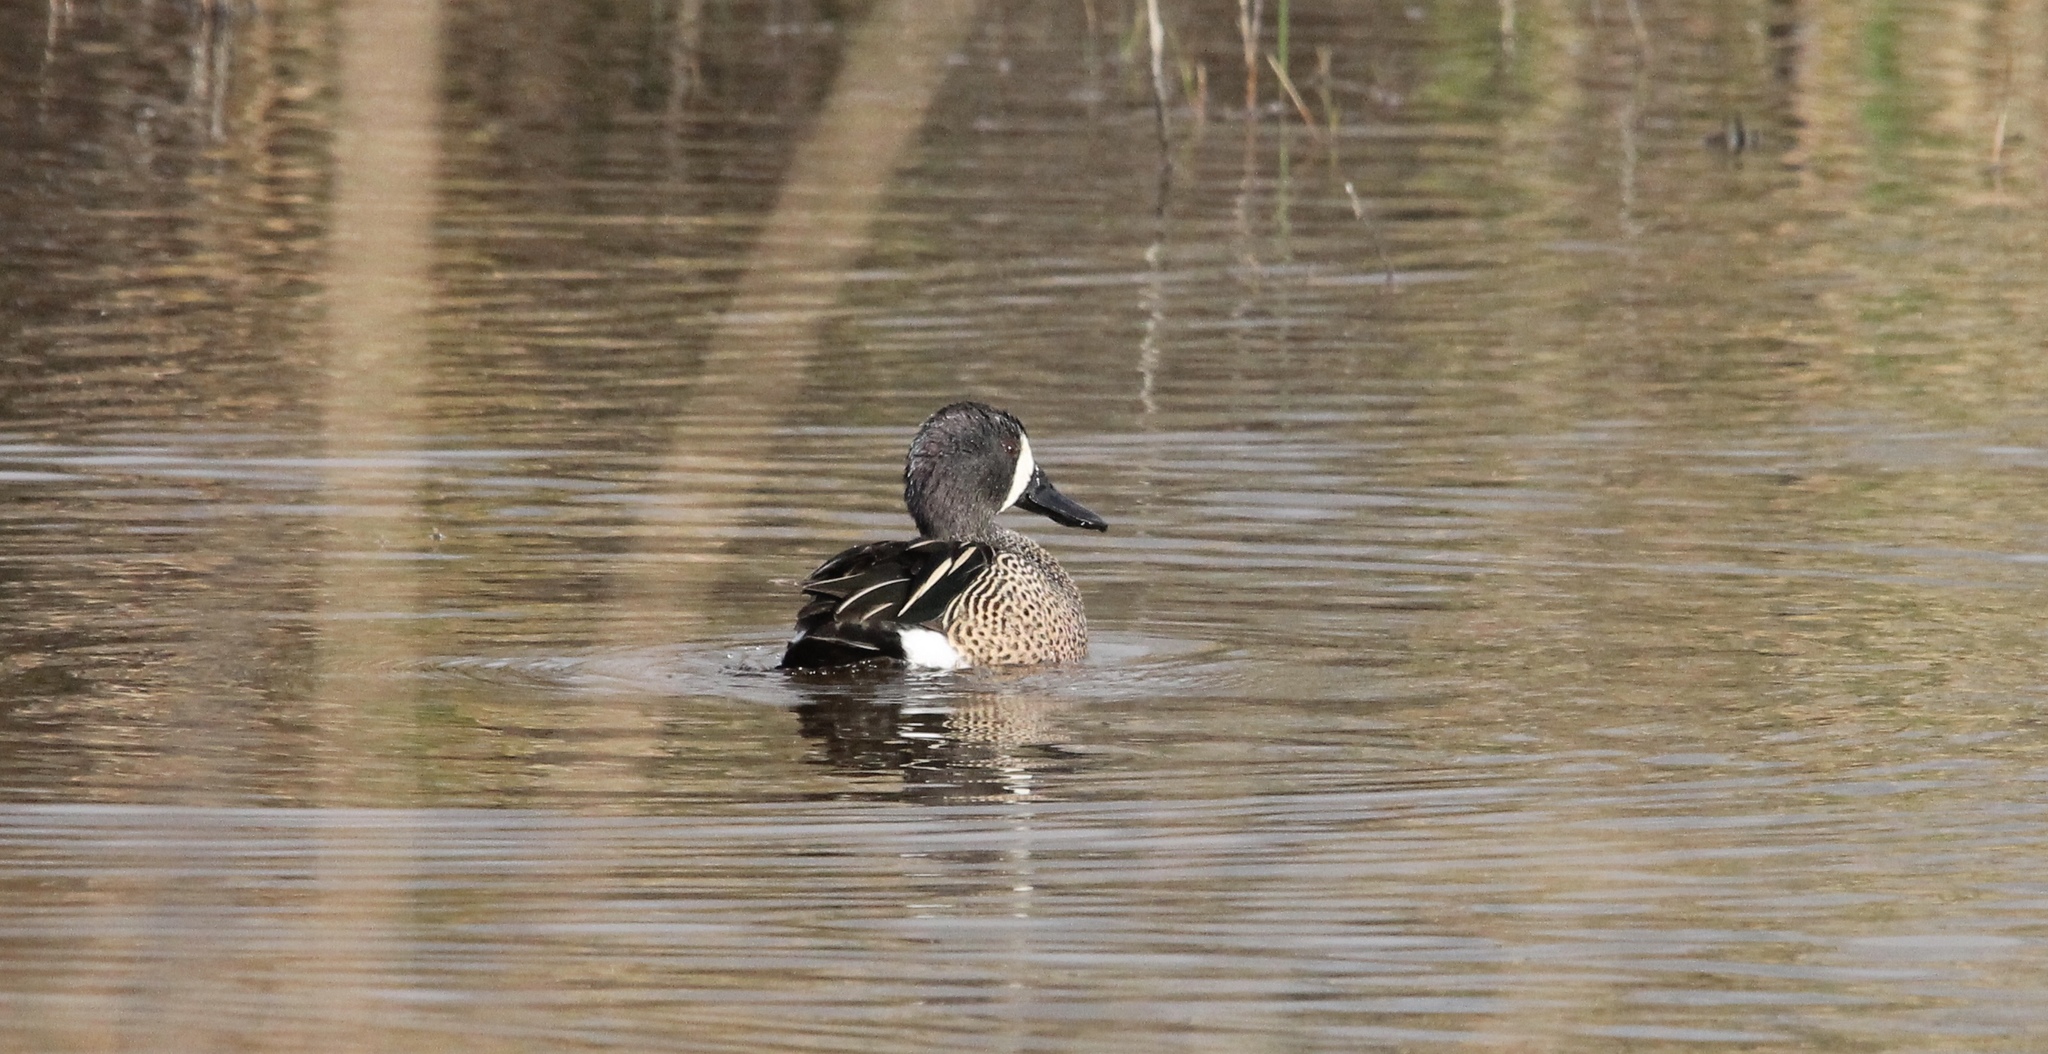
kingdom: Animalia
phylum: Chordata
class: Aves
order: Anseriformes
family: Anatidae
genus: Spatula
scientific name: Spatula discors
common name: Blue-winged teal
